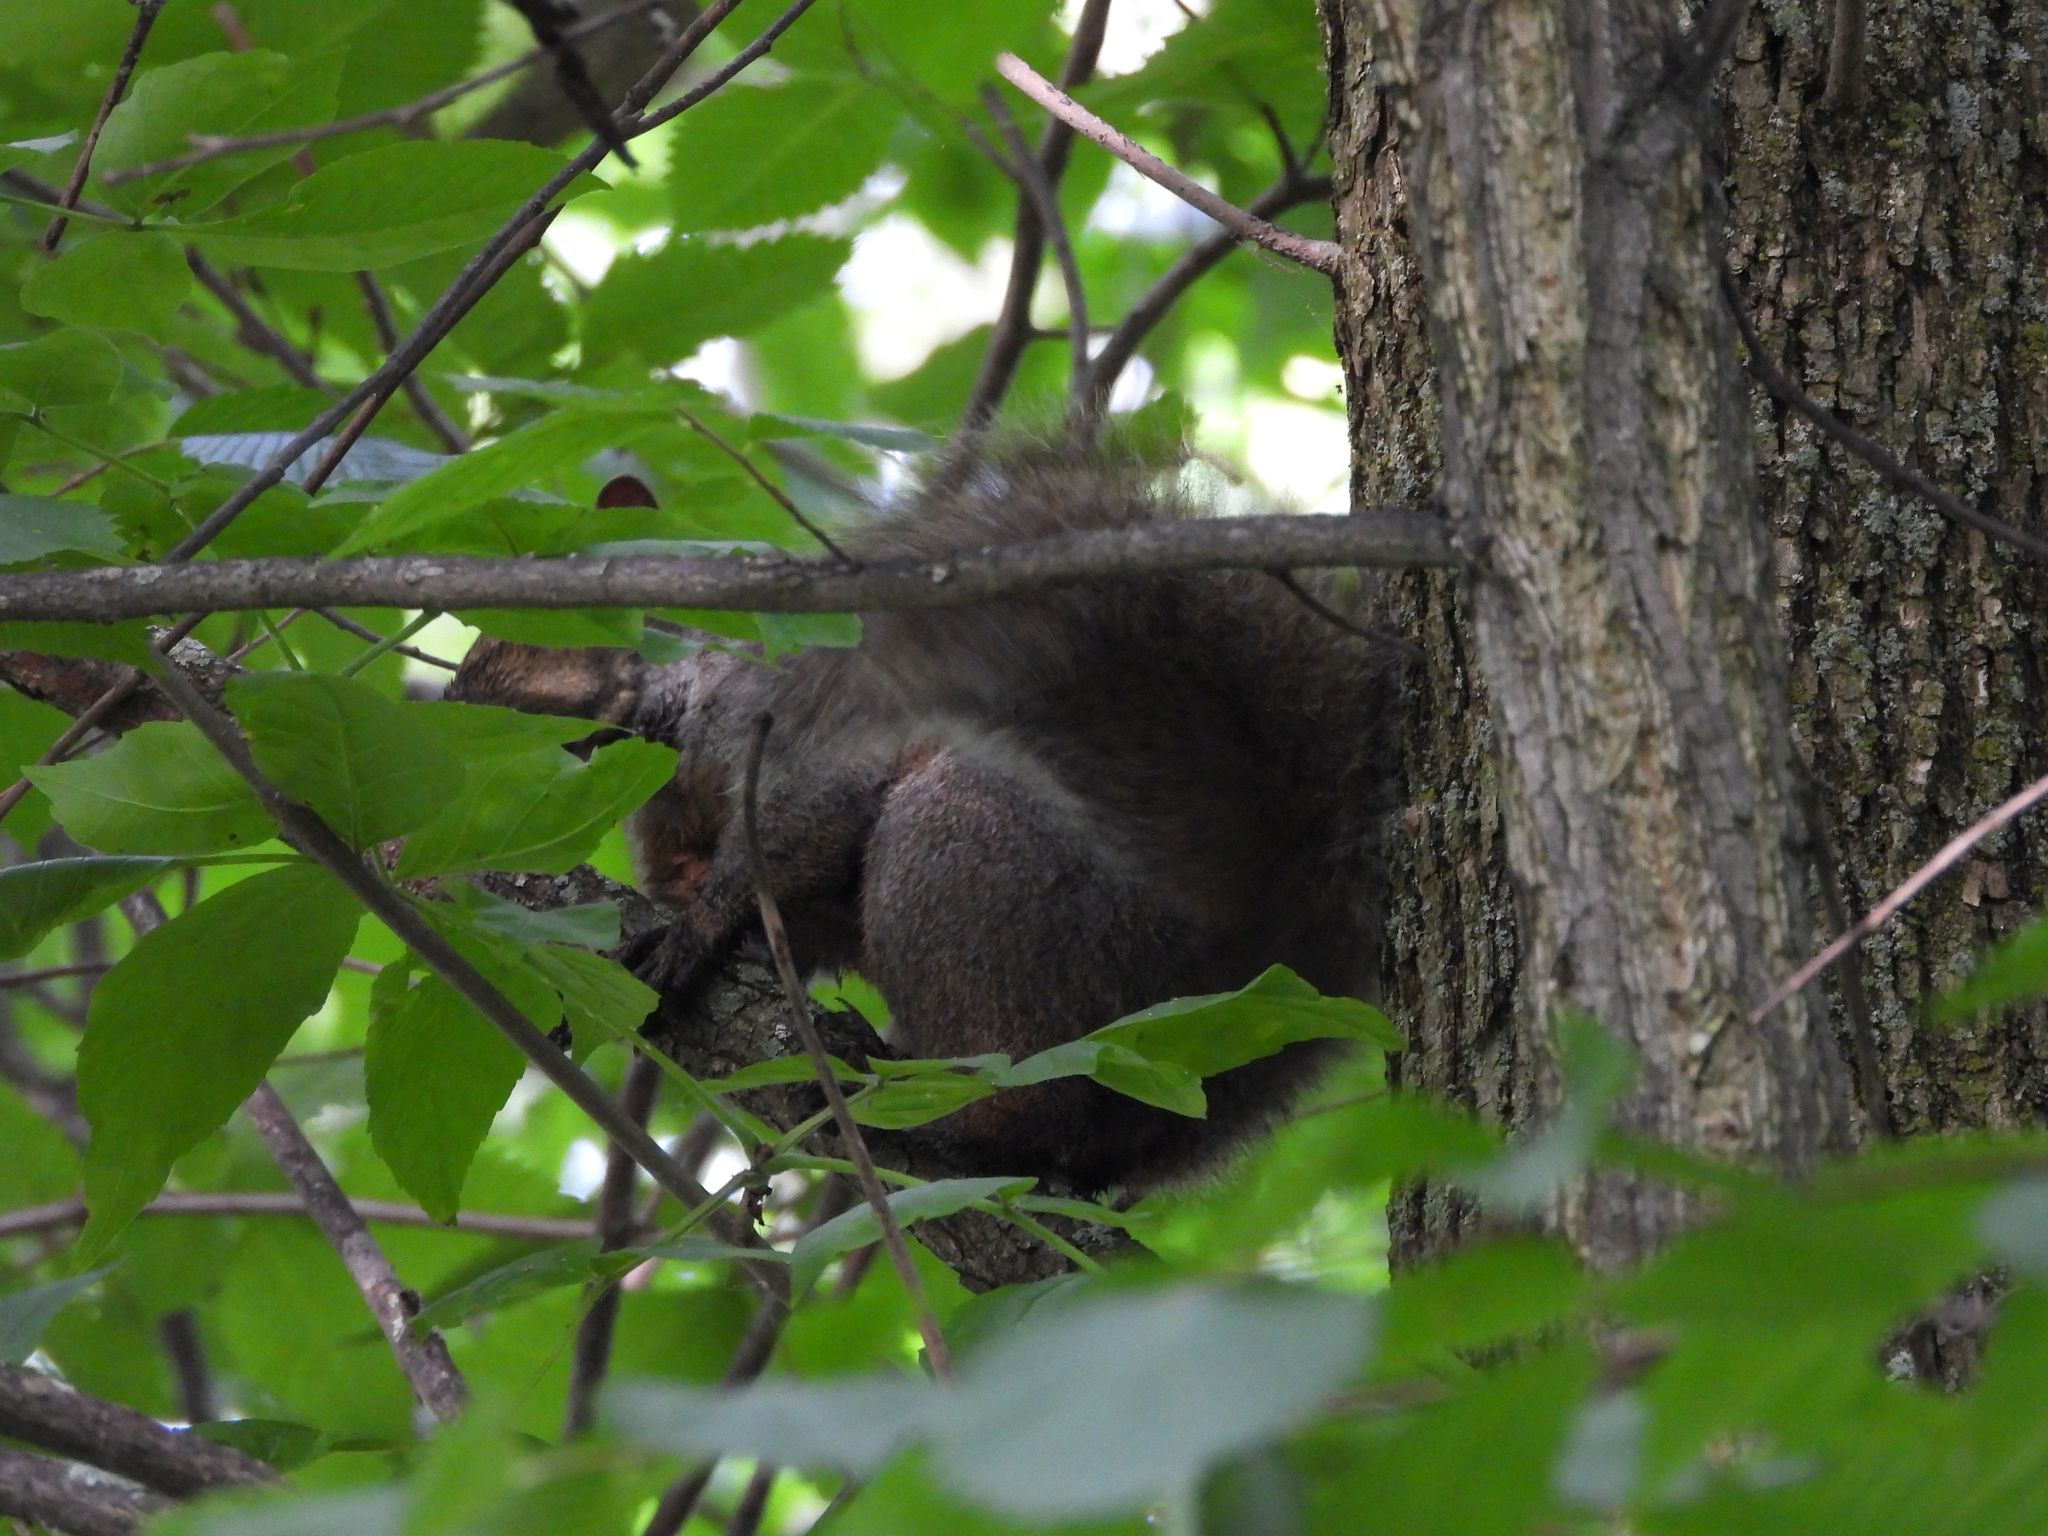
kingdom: Animalia
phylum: Chordata
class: Mammalia
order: Rodentia
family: Sciuridae
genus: Sciurus
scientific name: Sciurus carolinensis
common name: Eastern gray squirrel
